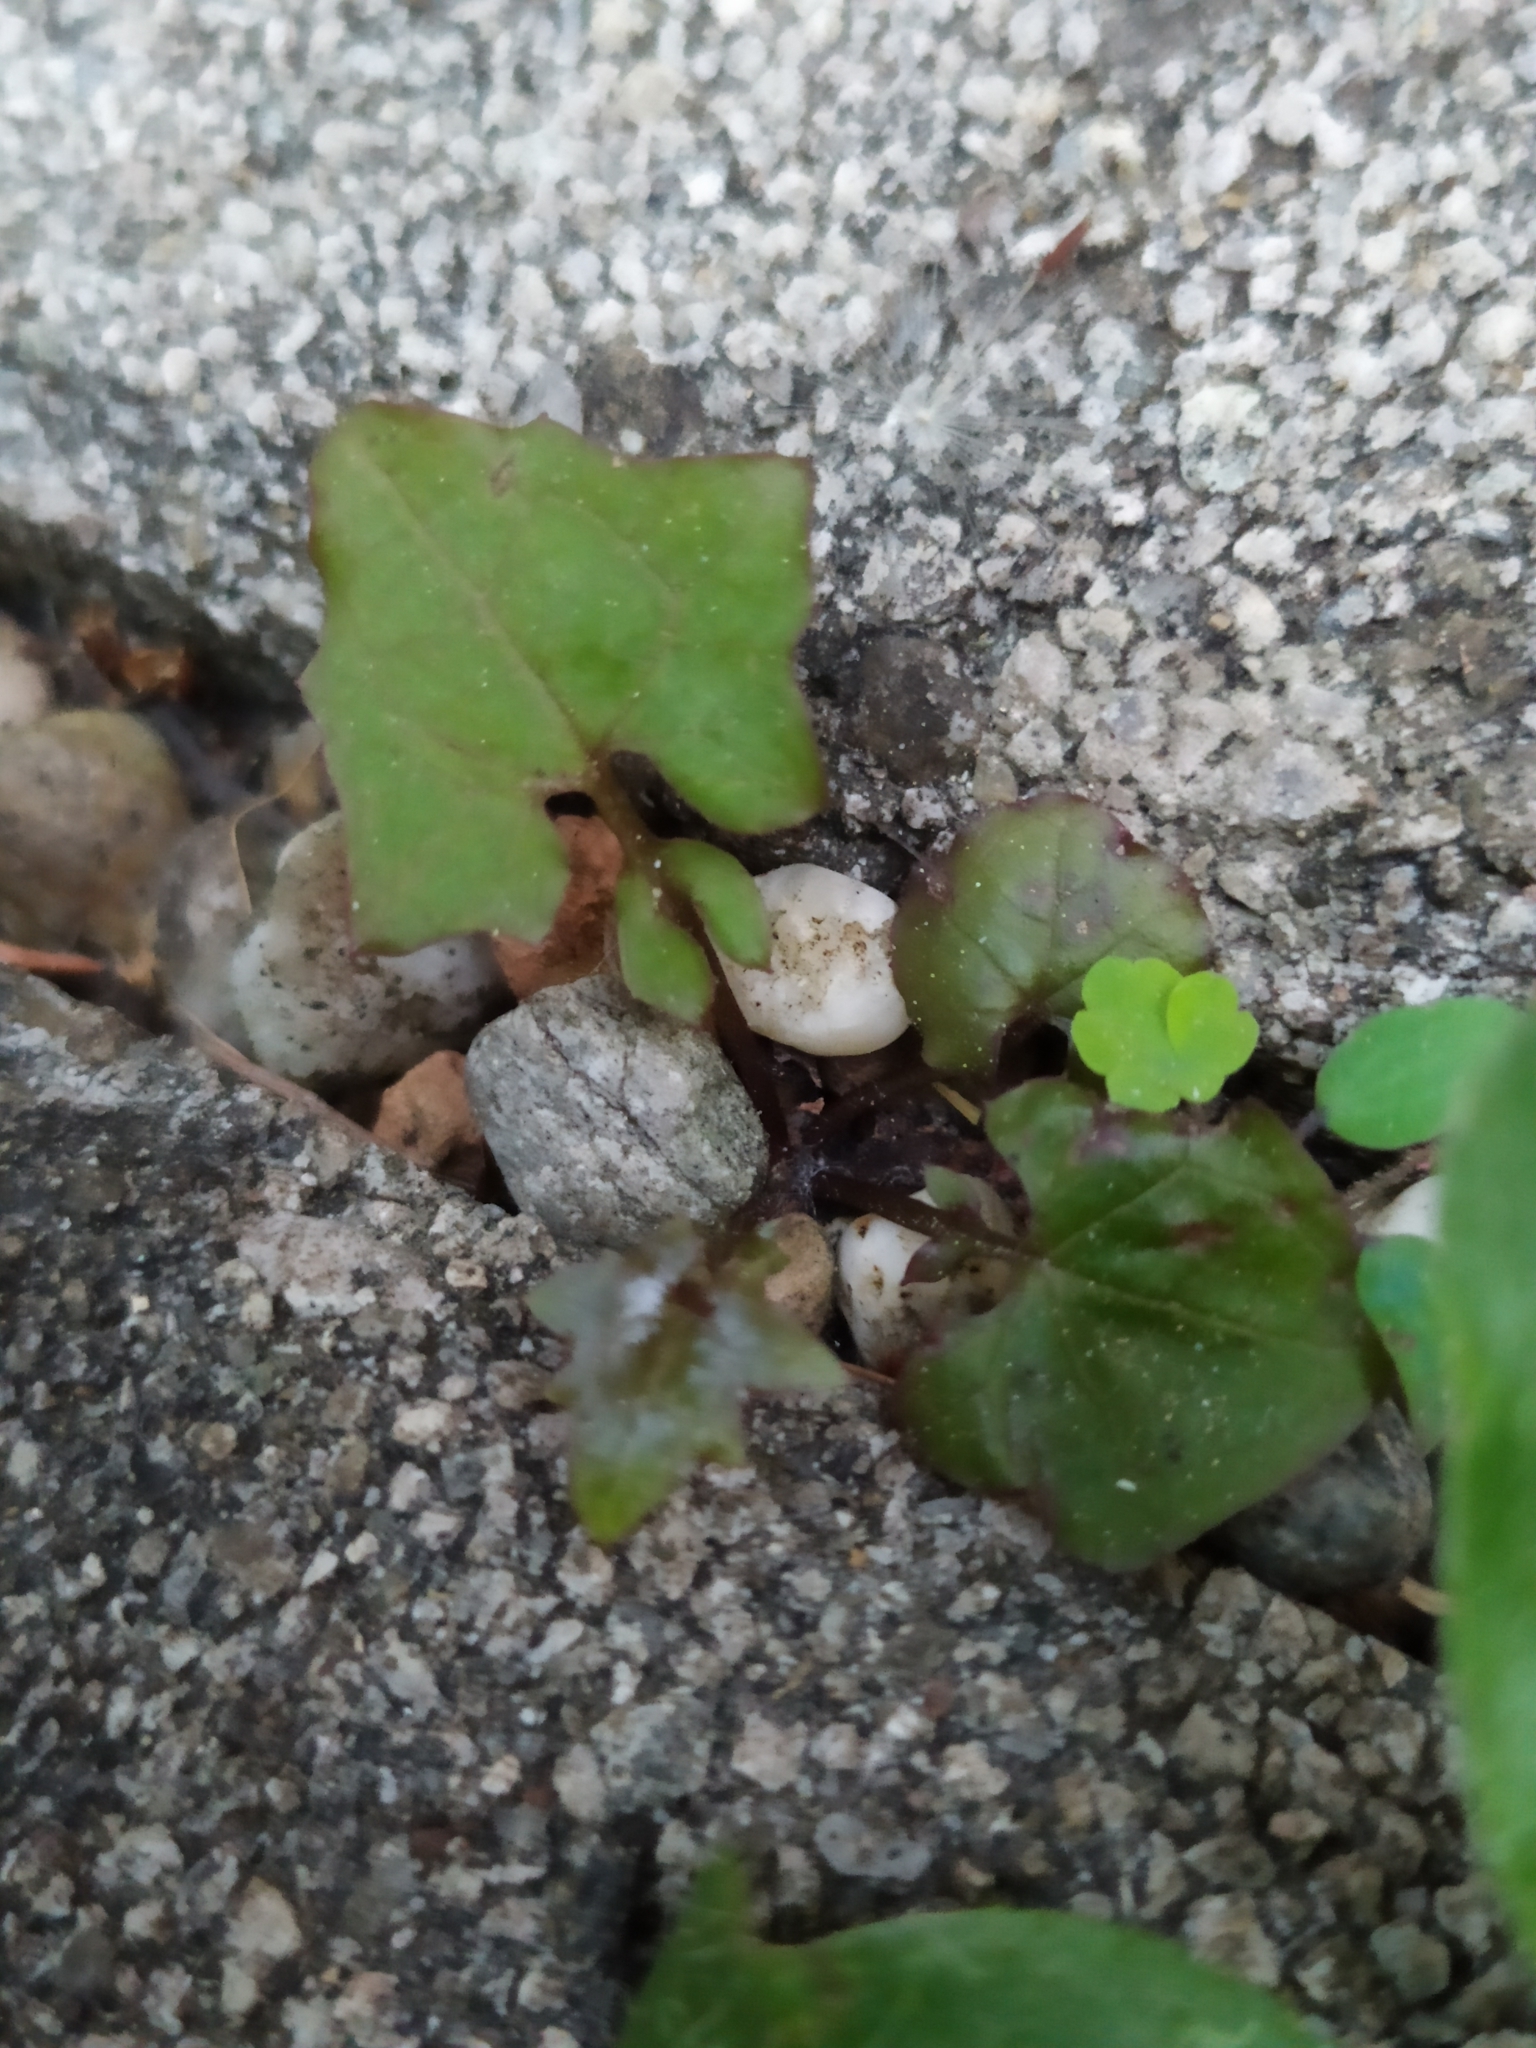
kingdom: Plantae
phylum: Tracheophyta
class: Magnoliopsida
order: Asterales
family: Asteraceae
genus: Mycelis
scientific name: Mycelis muralis
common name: Wall lettuce
